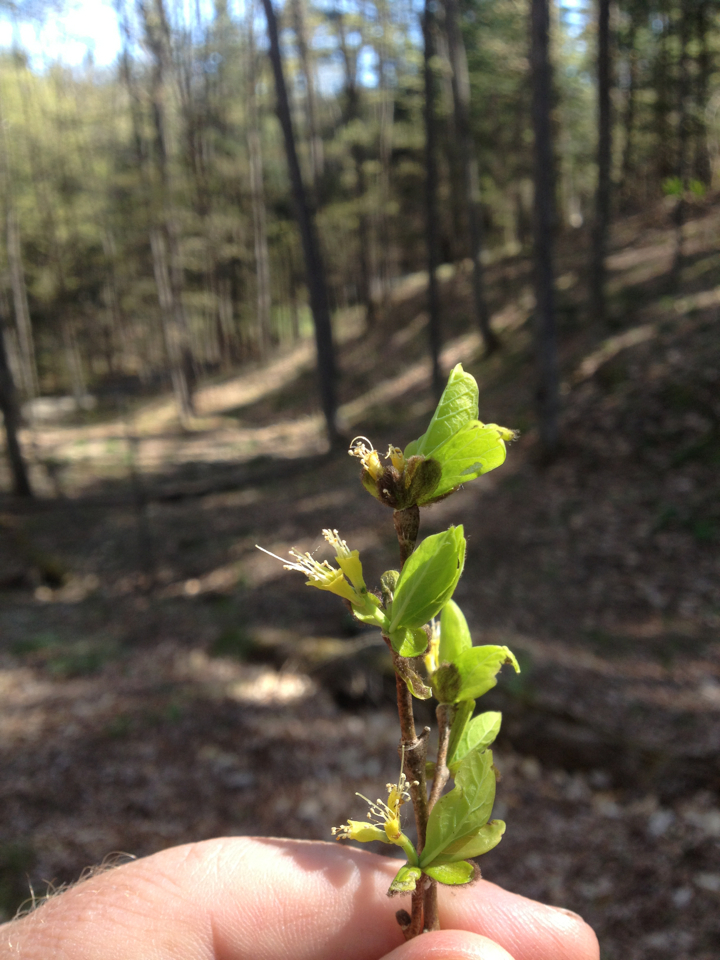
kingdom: Plantae
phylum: Tracheophyta
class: Magnoliopsida
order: Malvales
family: Thymelaeaceae
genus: Dirca
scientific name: Dirca palustris
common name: Leatherwood
